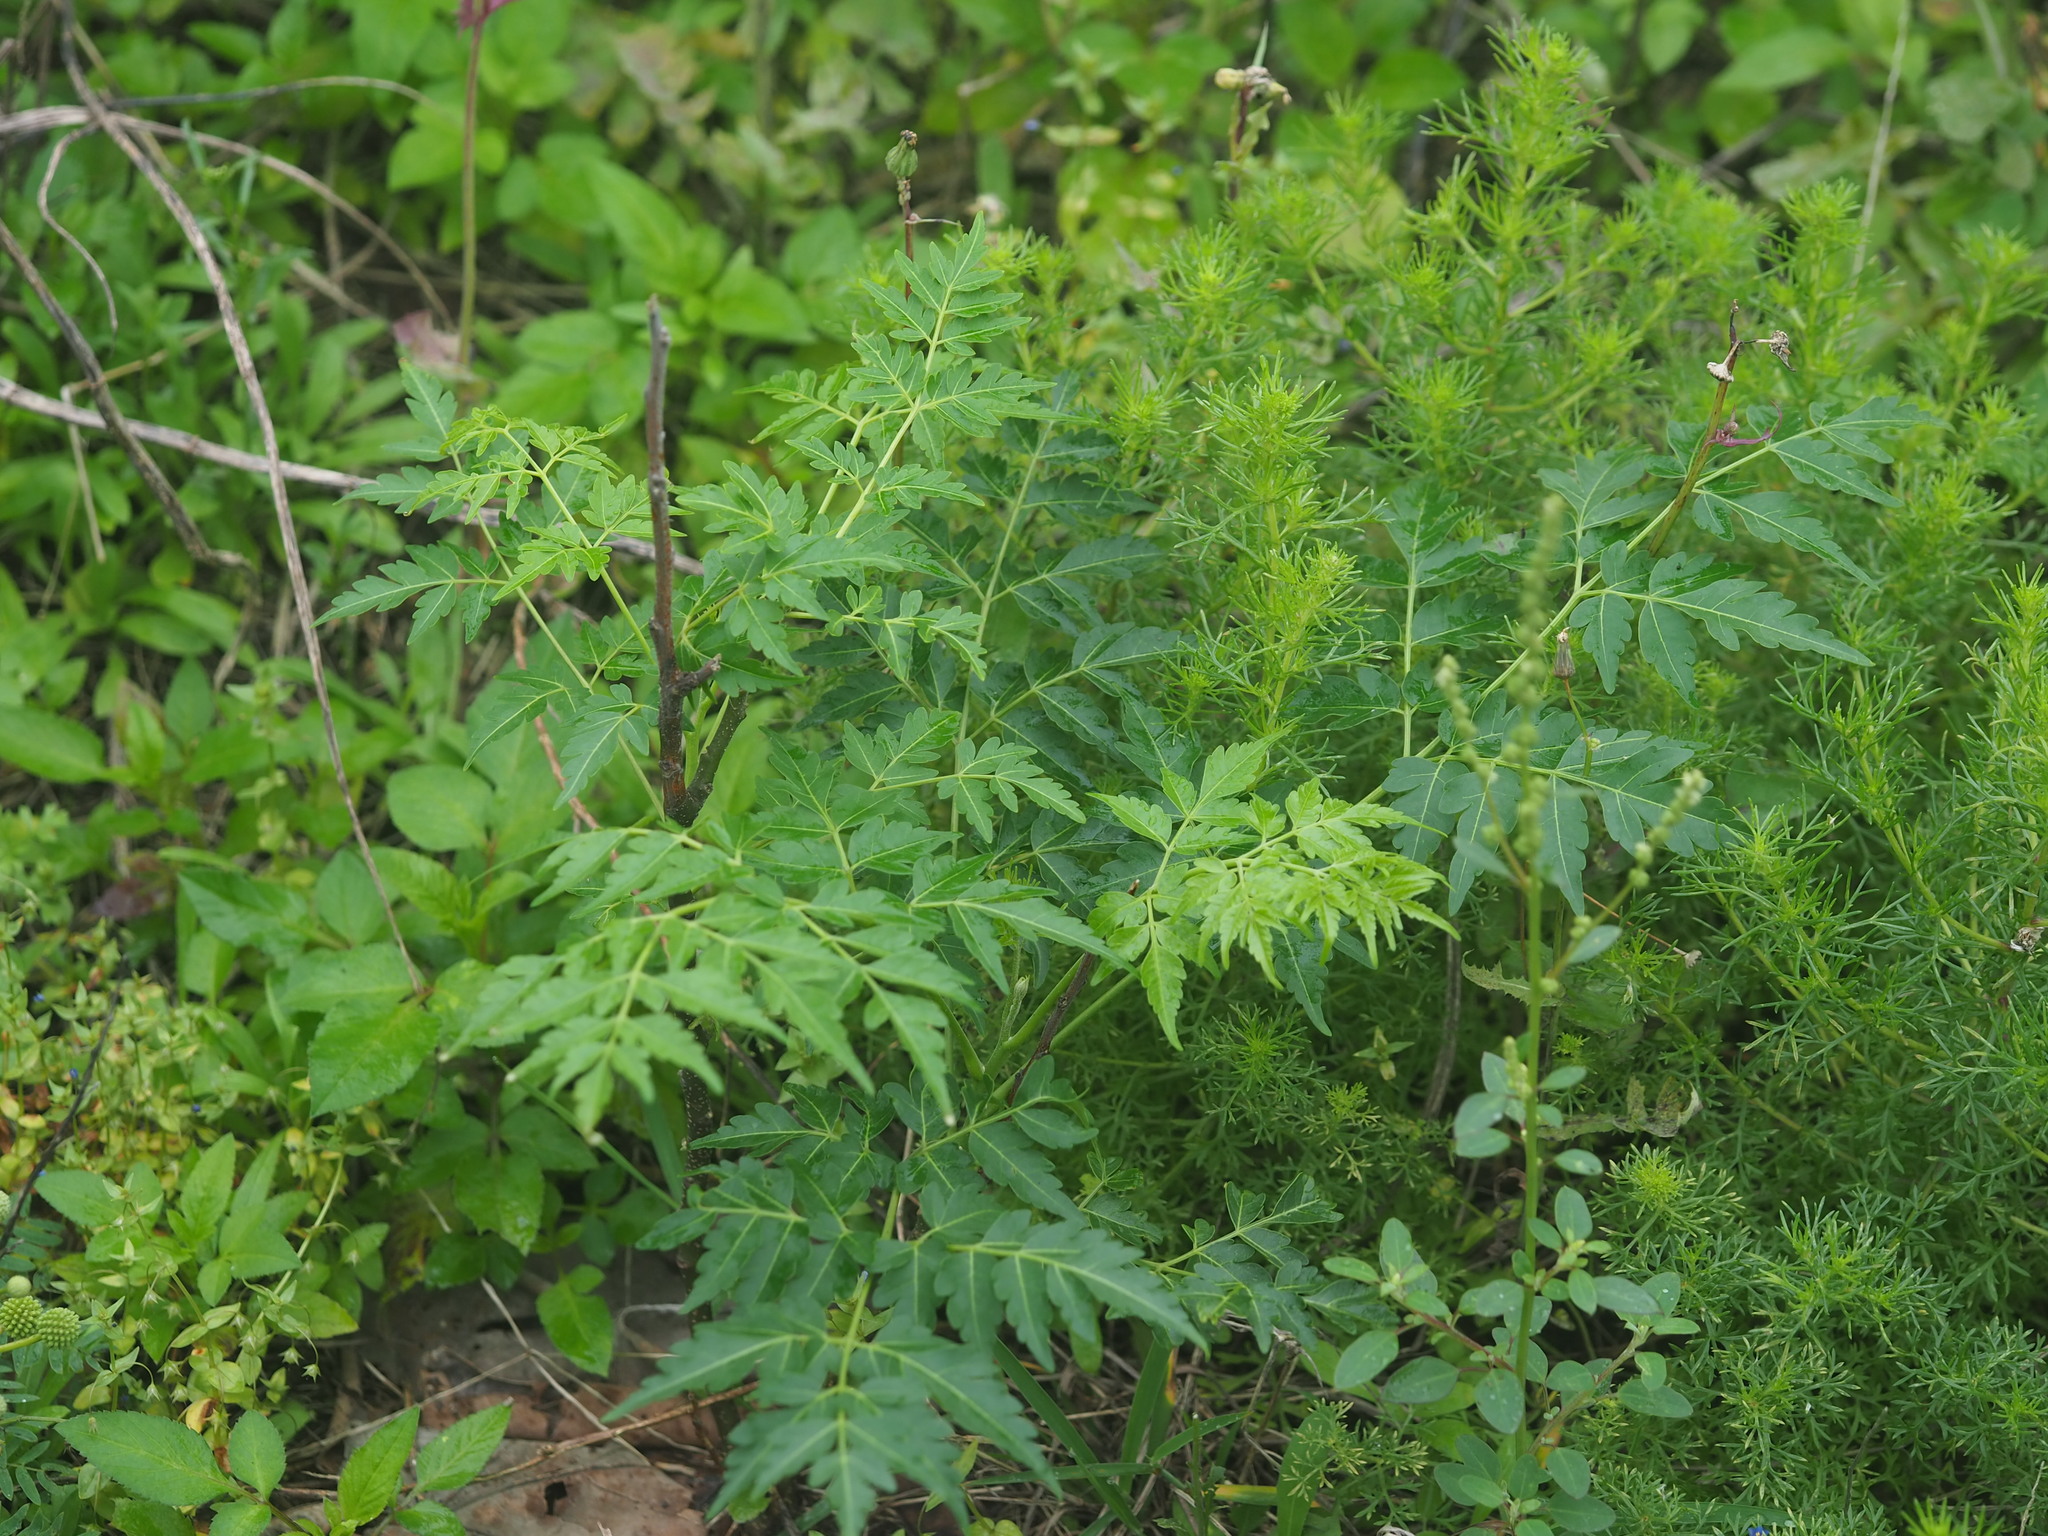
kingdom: Plantae
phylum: Tracheophyta
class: Magnoliopsida
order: Sapindales
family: Meliaceae
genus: Melia
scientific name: Melia azedarach
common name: Chinaberrytree
